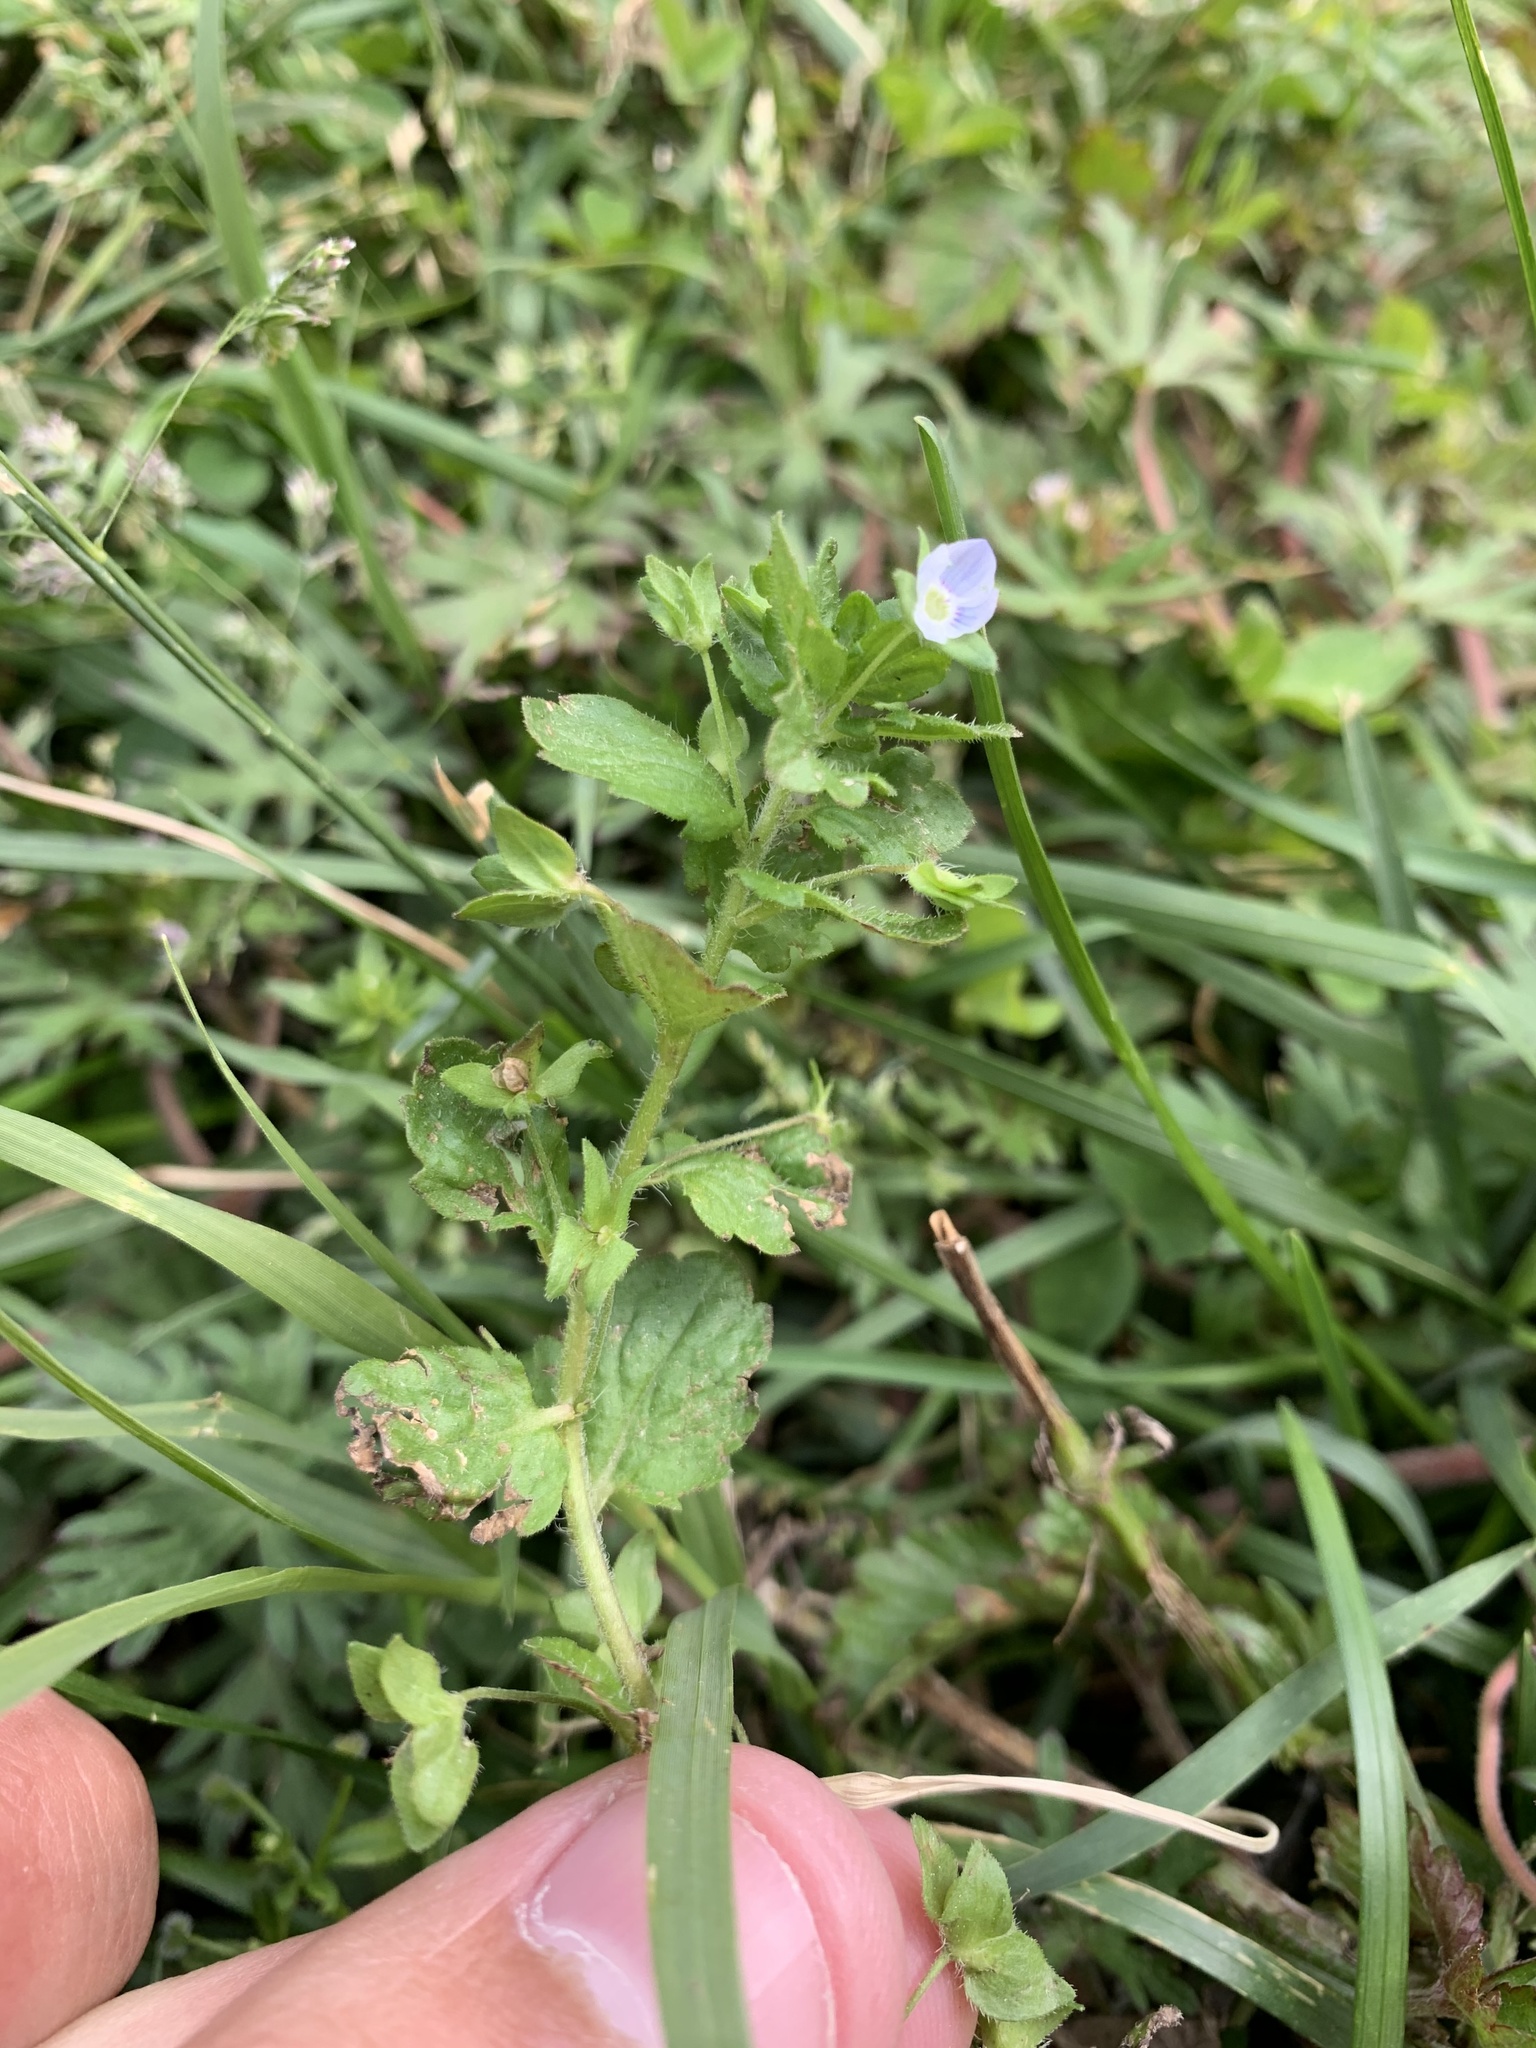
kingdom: Plantae
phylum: Tracheophyta
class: Magnoliopsida
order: Lamiales
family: Plantaginaceae
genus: Veronica
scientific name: Veronica persica
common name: Common field-speedwell
